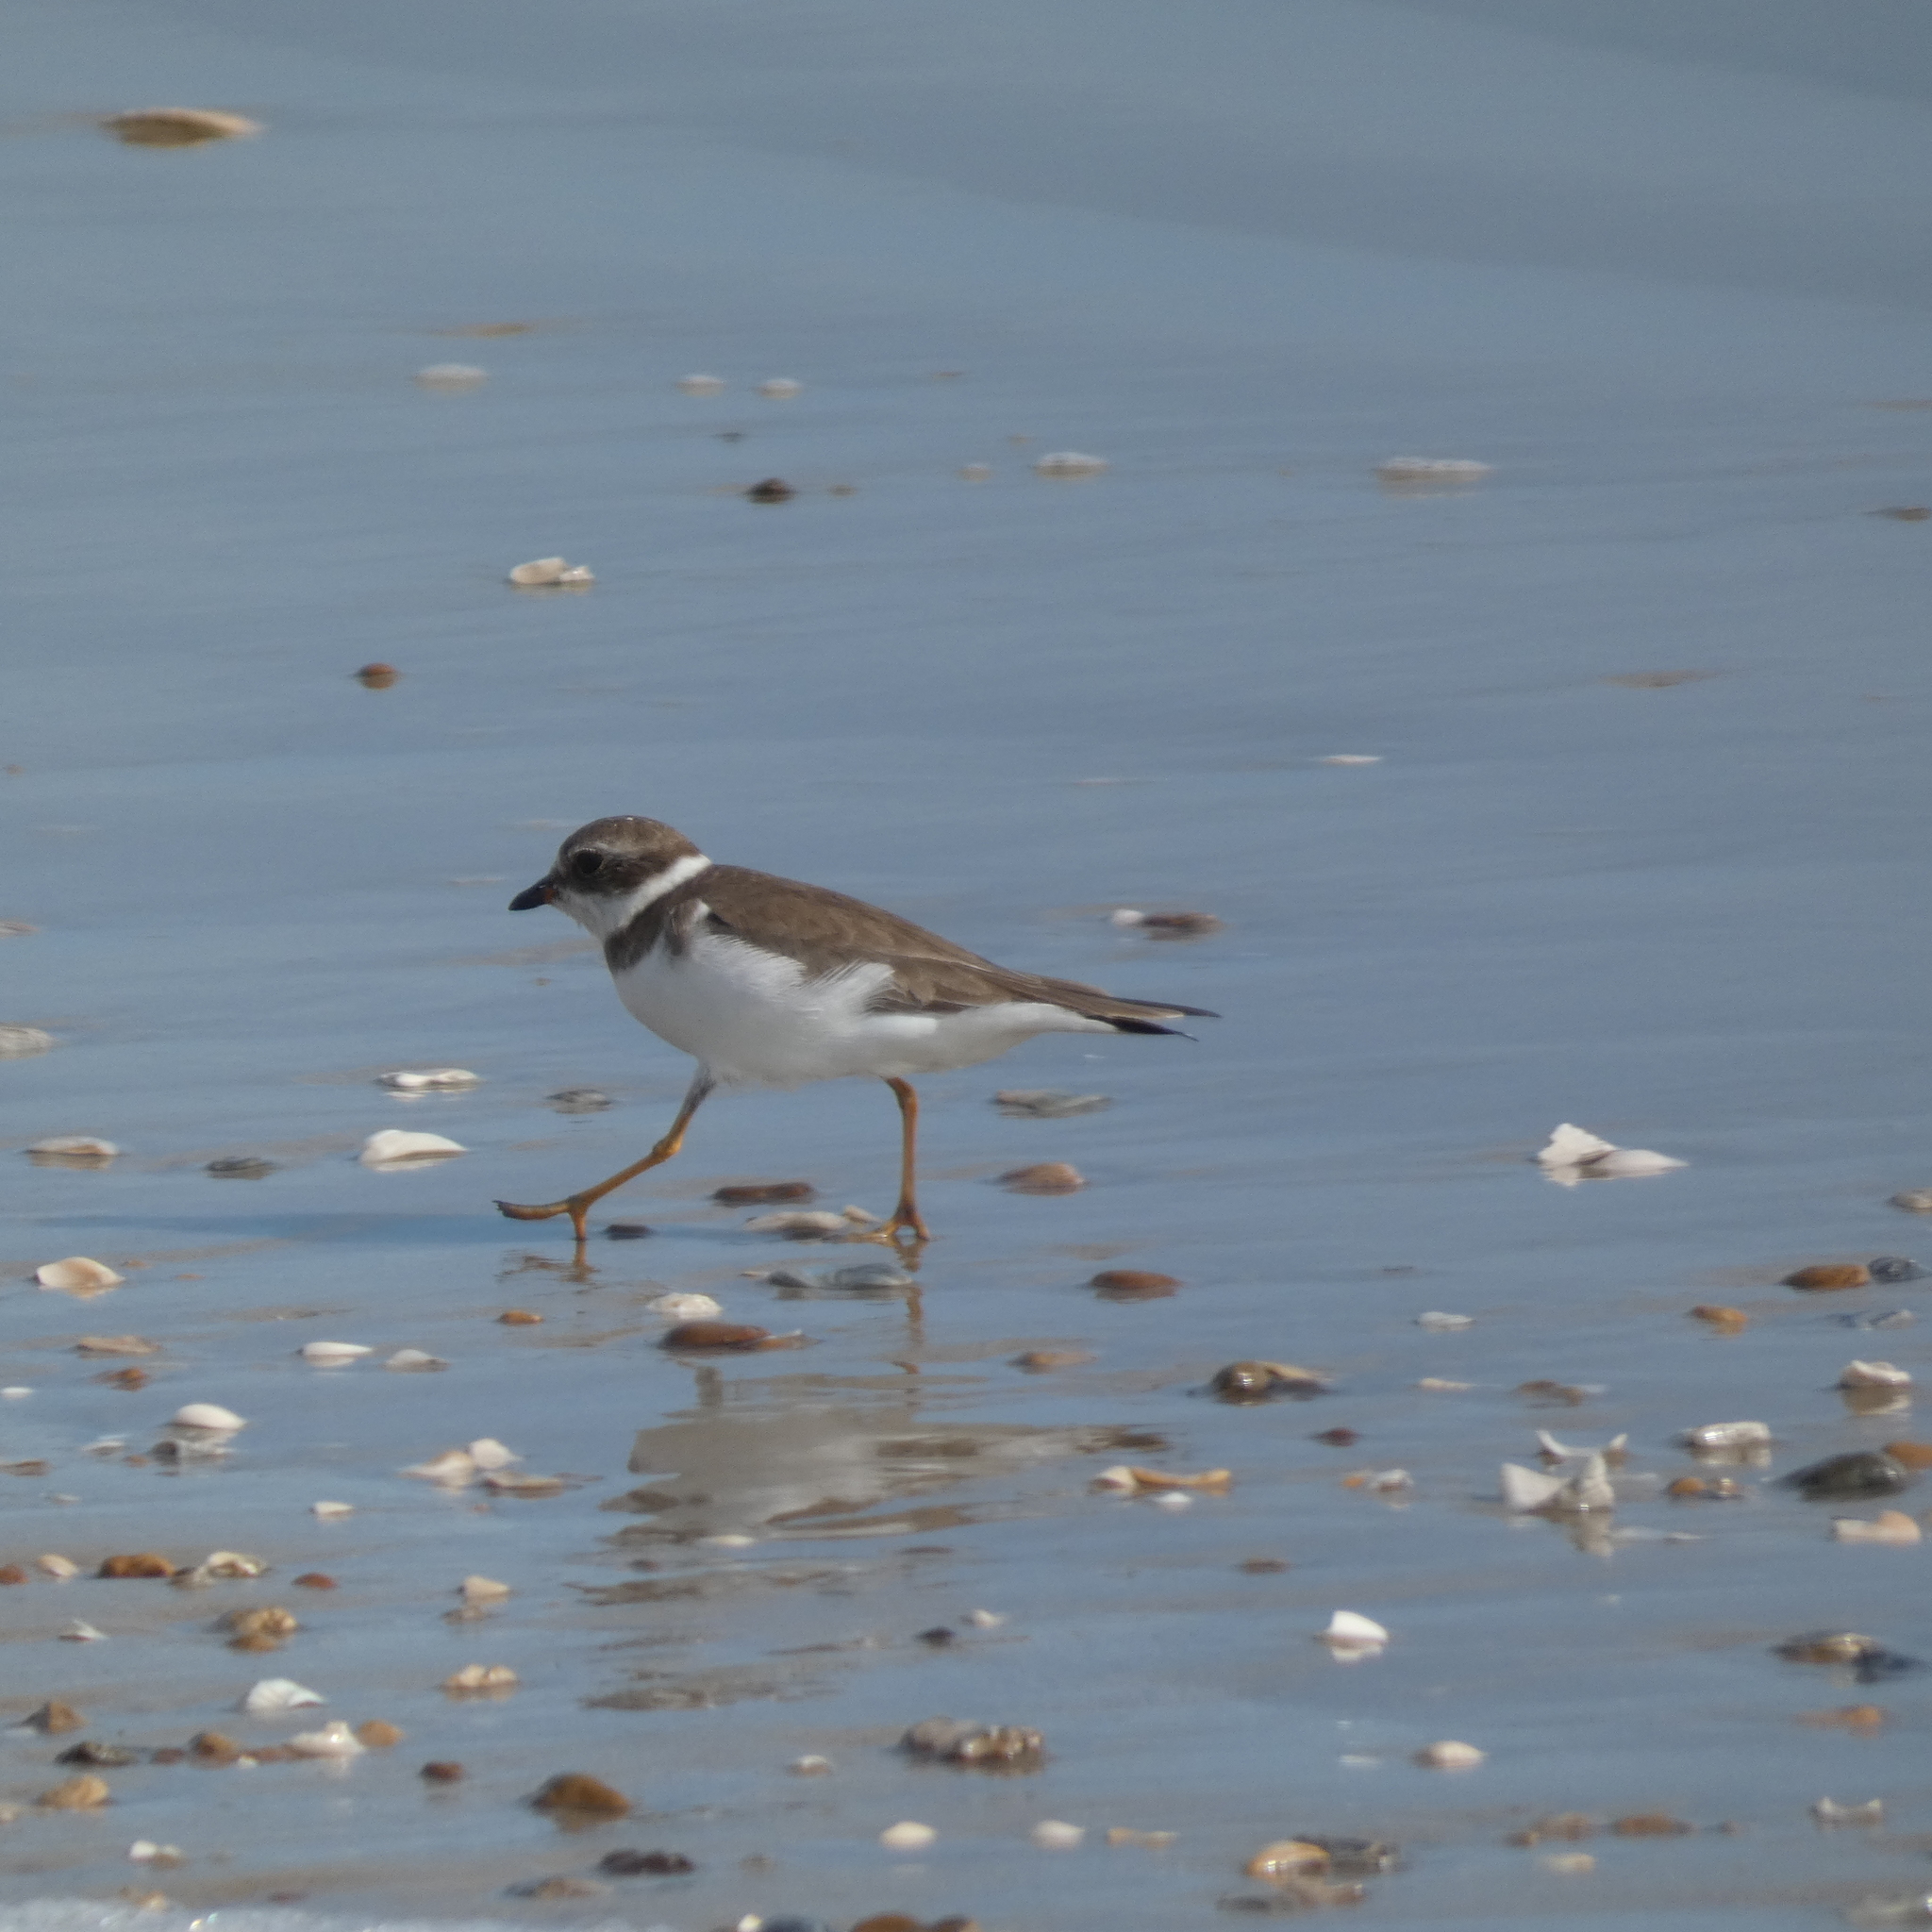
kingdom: Animalia
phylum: Chordata
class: Aves
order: Charadriiformes
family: Charadriidae
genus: Charadrius
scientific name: Charadrius semipalmatus
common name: Semipalmated plover
